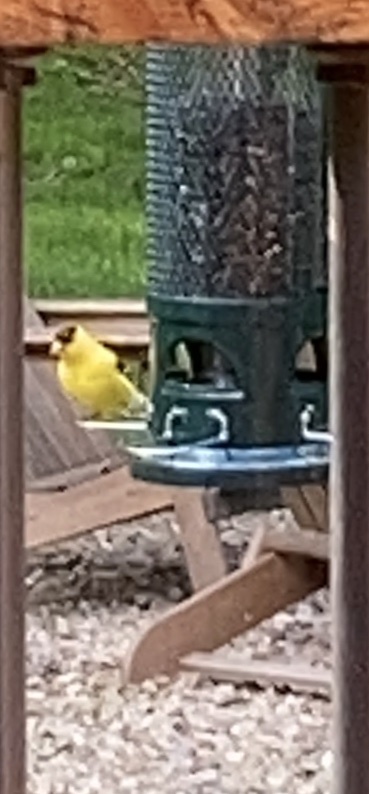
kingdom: Animalia
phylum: Chordata
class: Aves
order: Passeriformes
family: Fringillidae
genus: Spinus
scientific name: Spinus tristis
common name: American goldfinch
